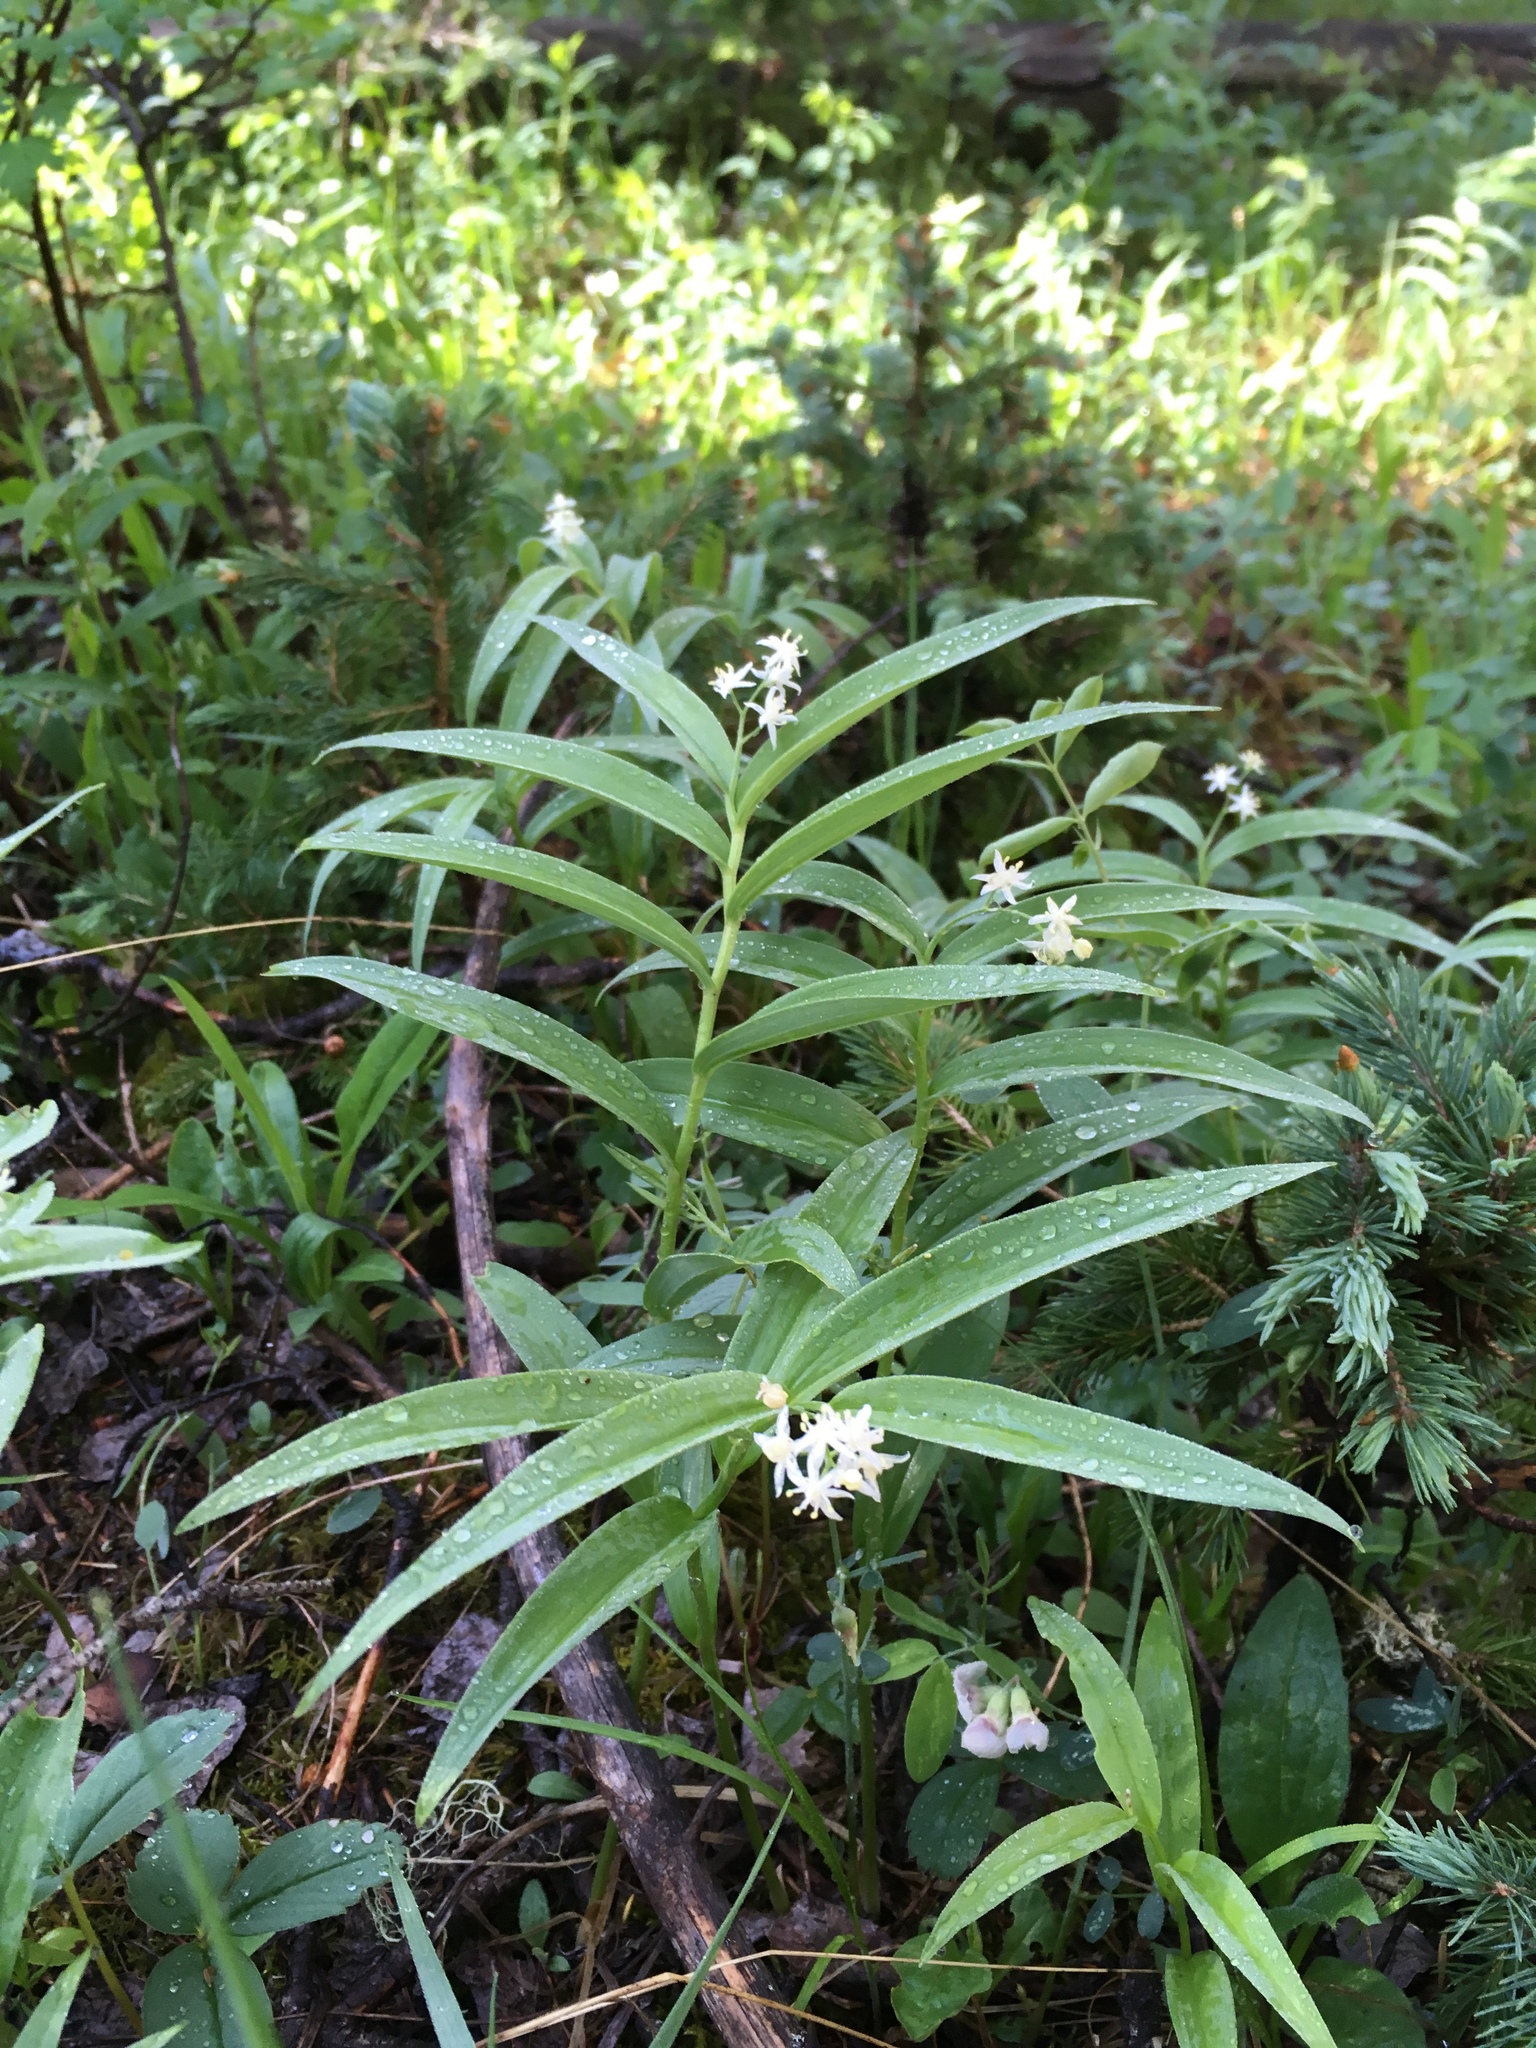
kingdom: Plantae
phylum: Tracheophyta
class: Liliopsida
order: Asparagales
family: Asparagaceae
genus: Maianthemum
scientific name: Maianthemum stellatum
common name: Little false solomon's seal
